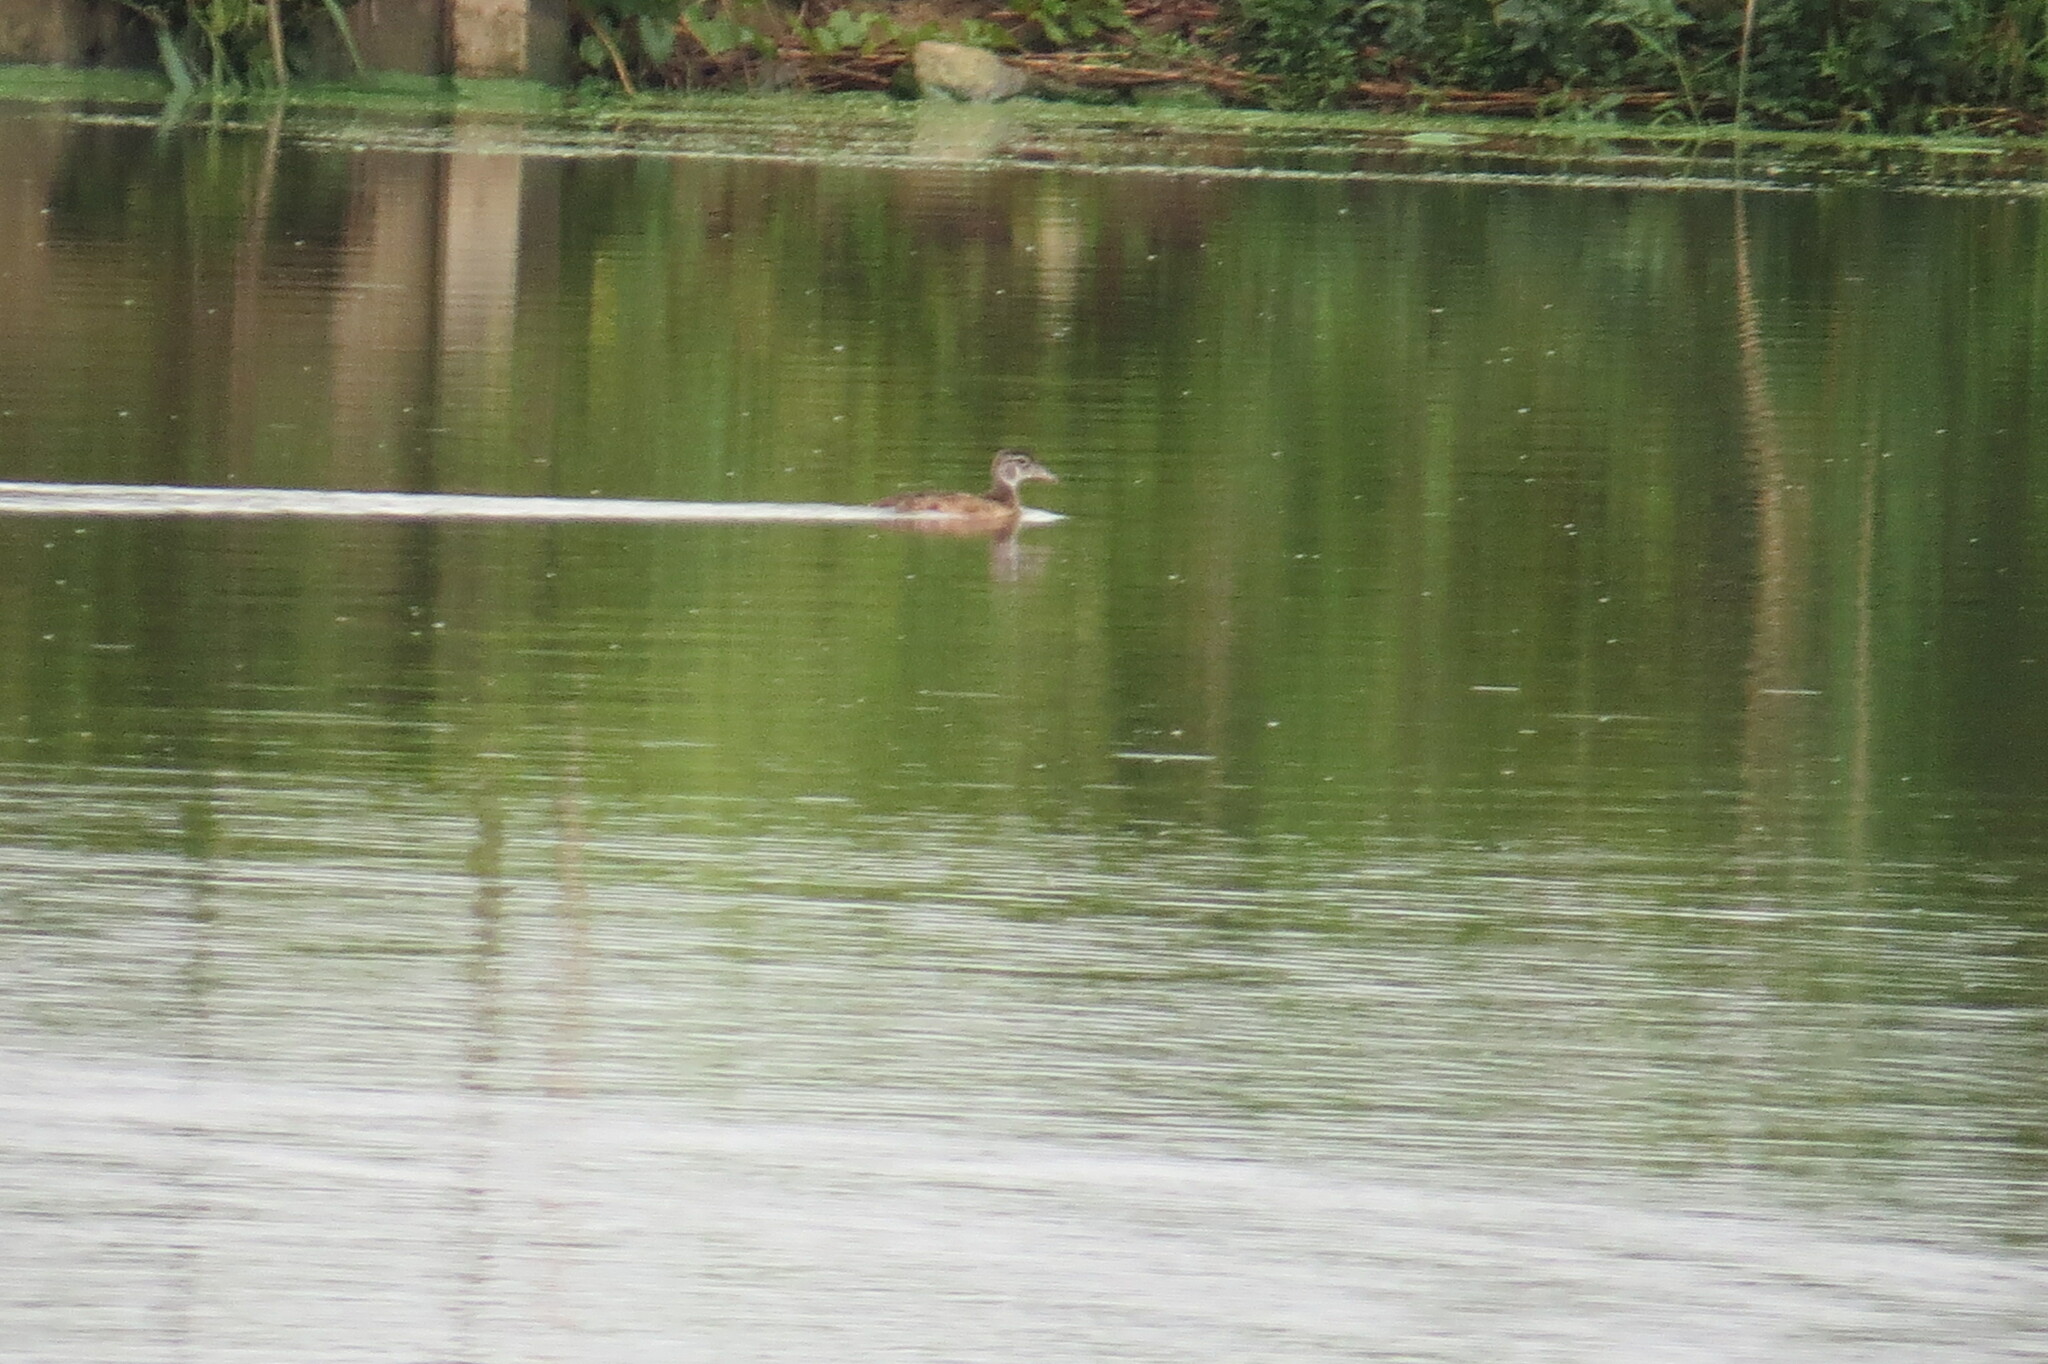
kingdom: Animalia
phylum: Chordata
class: Aves
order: Anseriformes
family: Anatidae
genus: Aix
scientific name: Aix sponsa
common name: Wood duck
